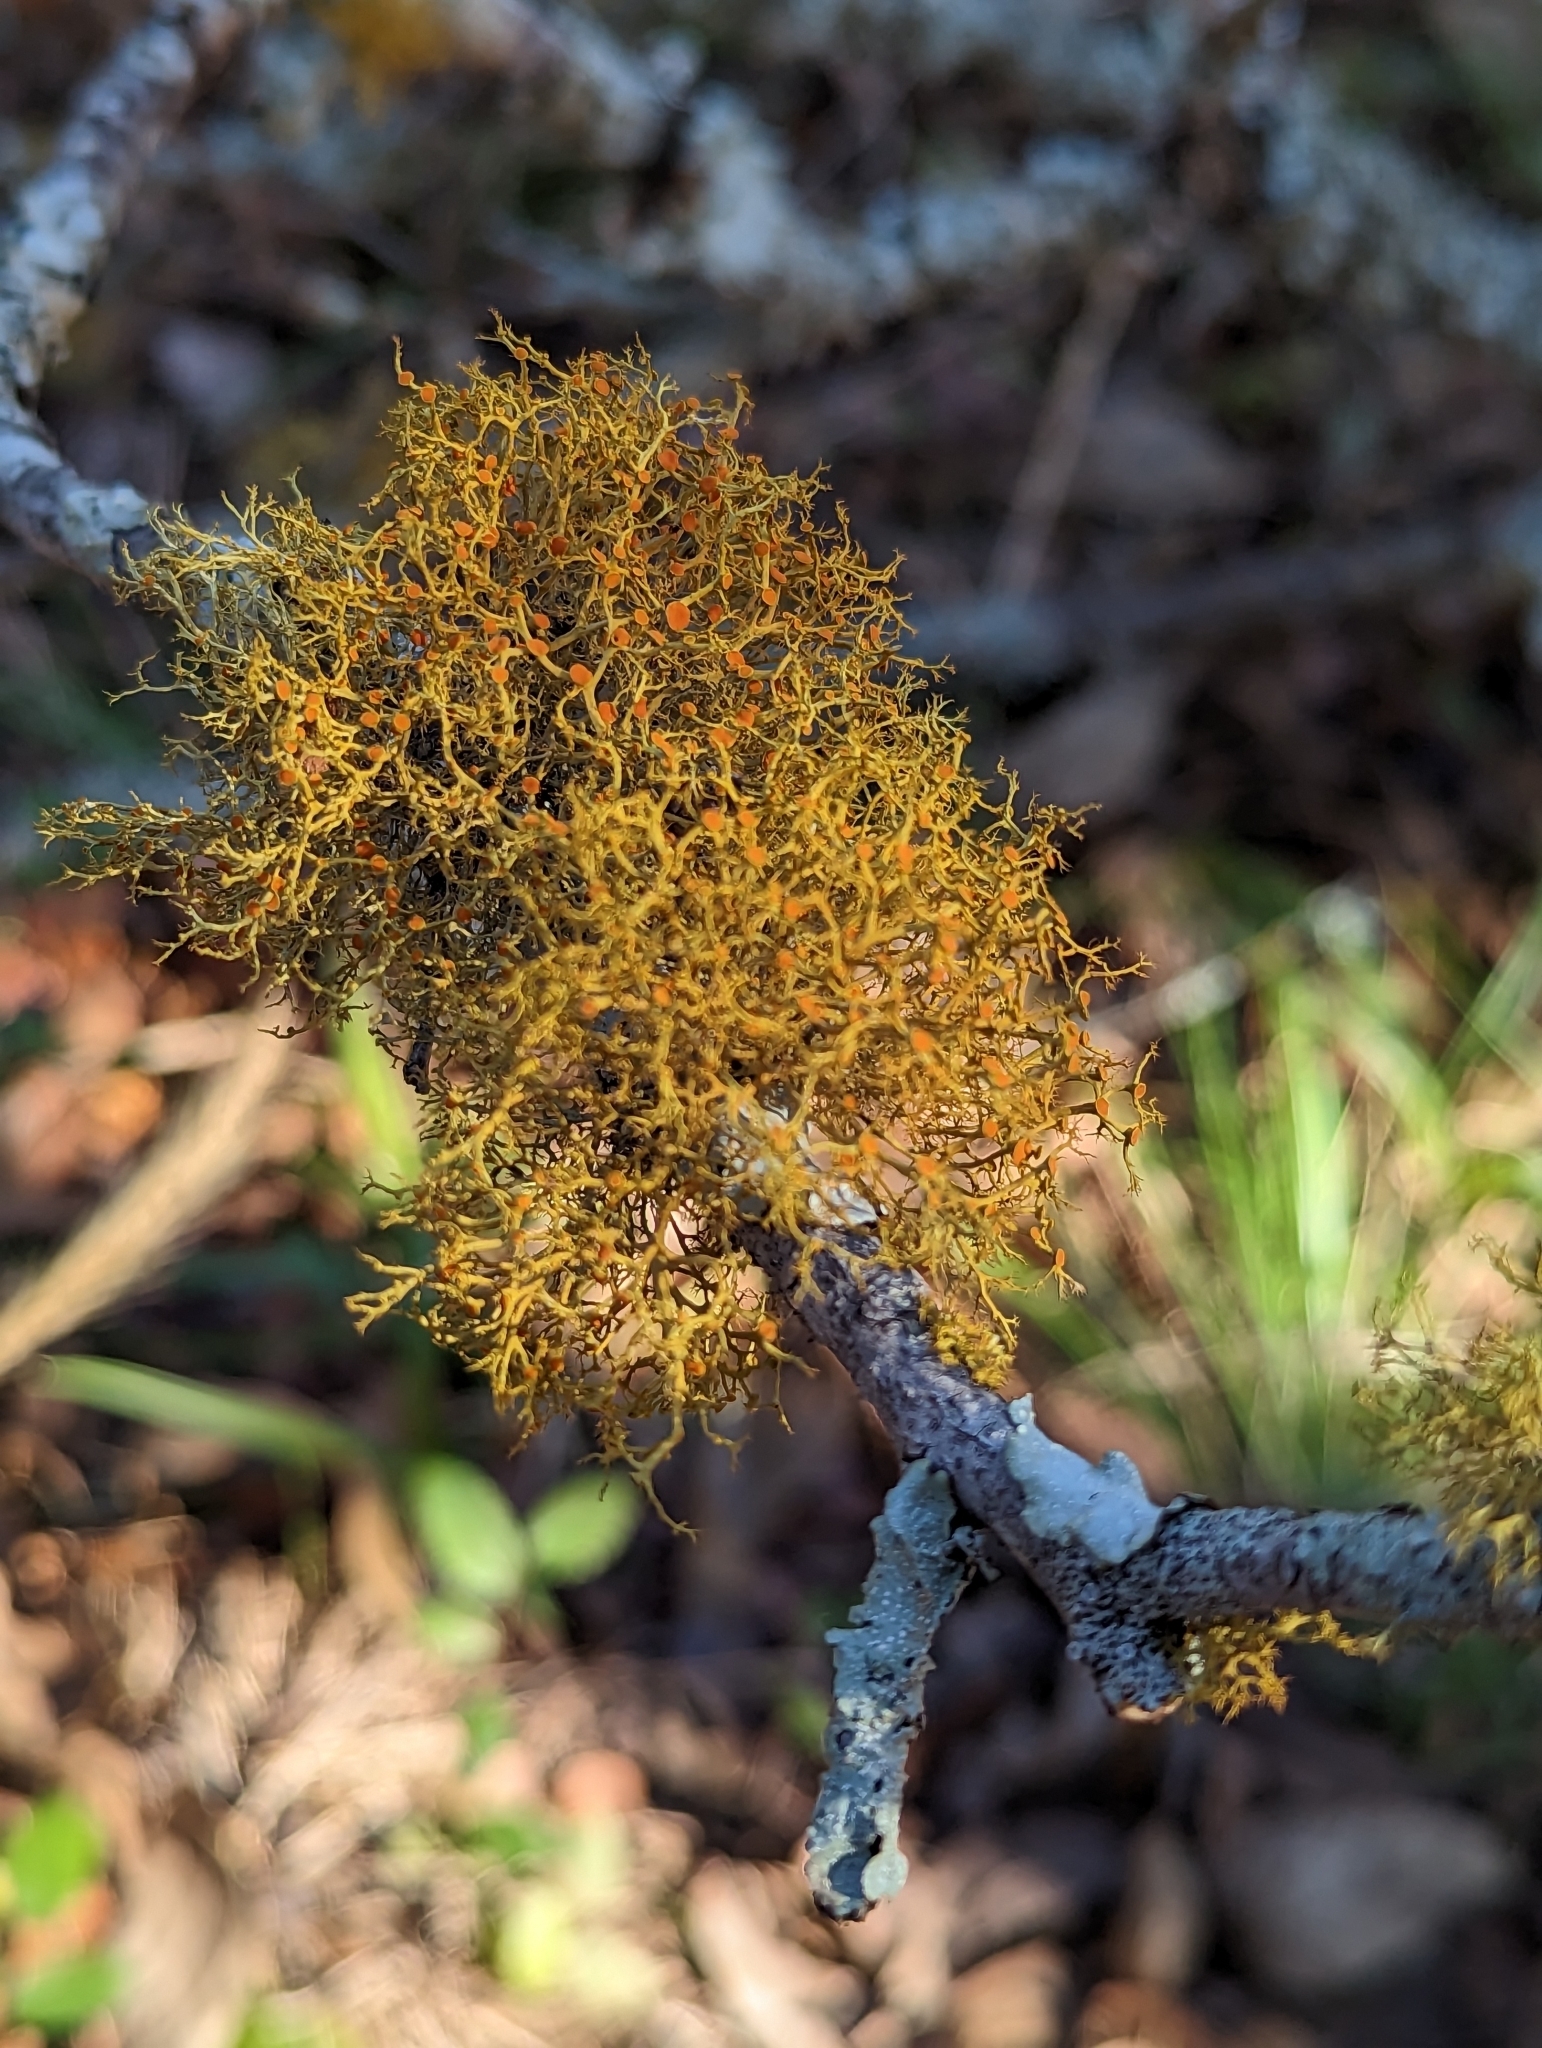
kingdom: Fungi
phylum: Ascomycota
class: Lecanoromycetes
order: Teloschistales
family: Teloschistaceae
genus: Teloschistes
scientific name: Teloschistes exilis
